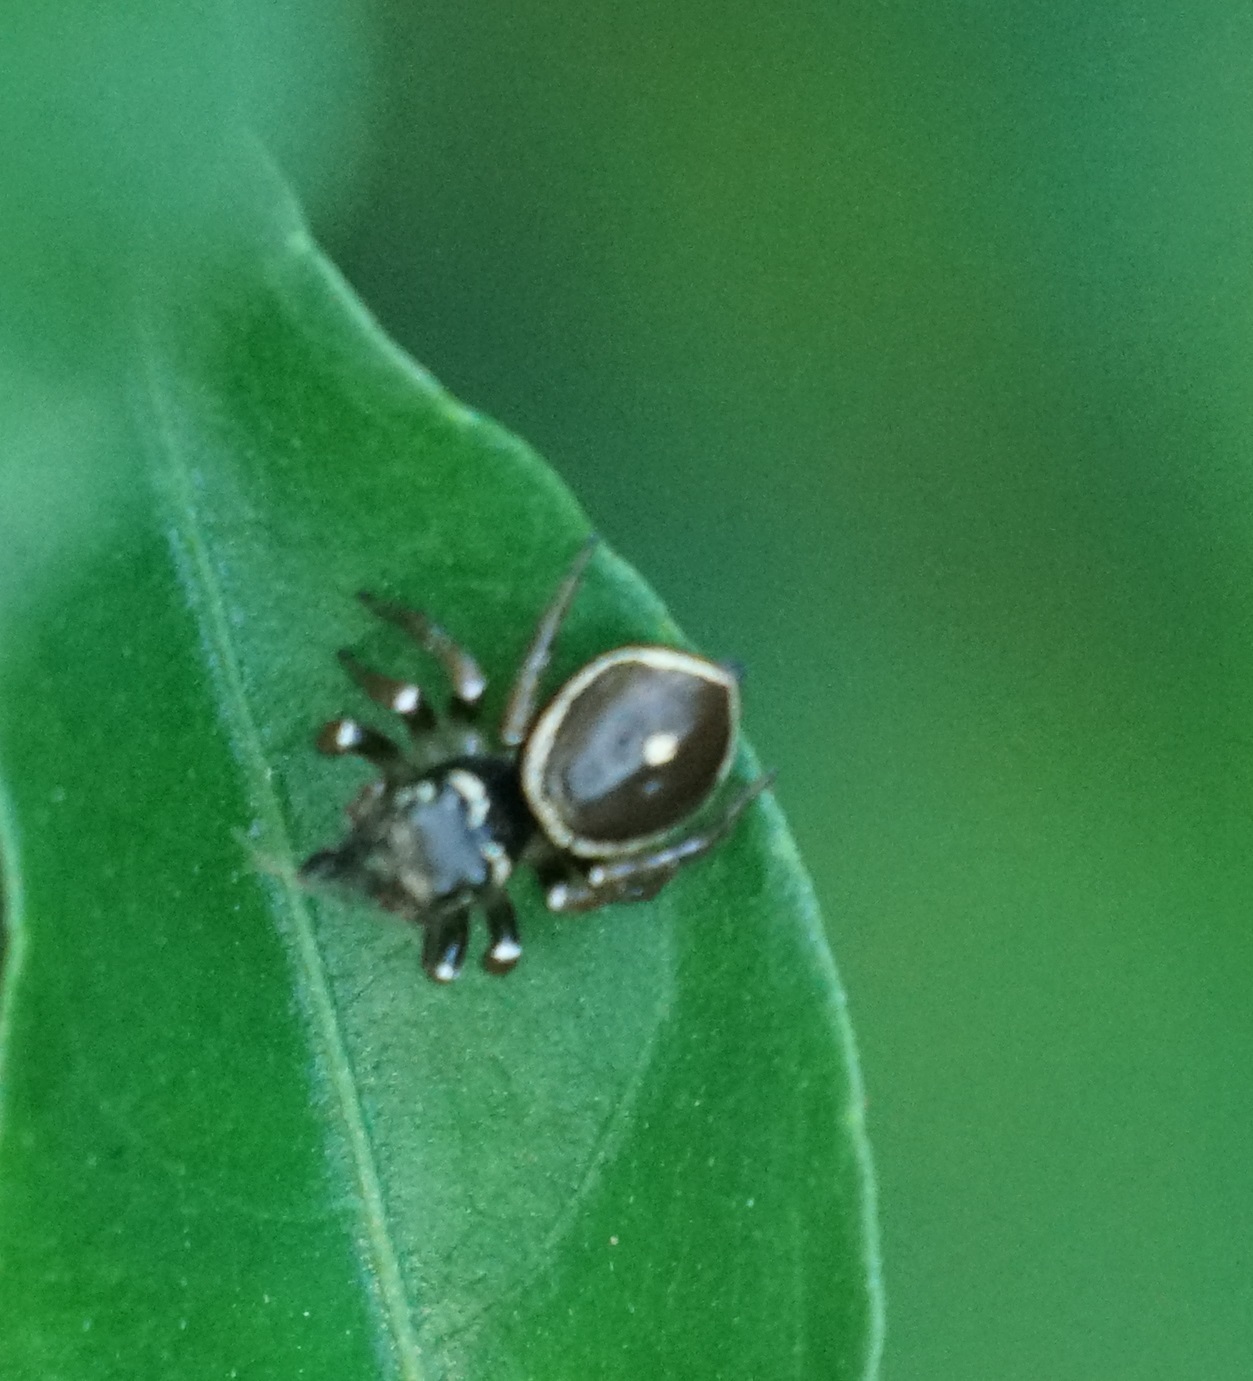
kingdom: Animalia
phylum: Arthropoda
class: Arachnida
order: Araneae
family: Salticidae
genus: Zenodorus
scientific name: Zenodorus orbiculatus
